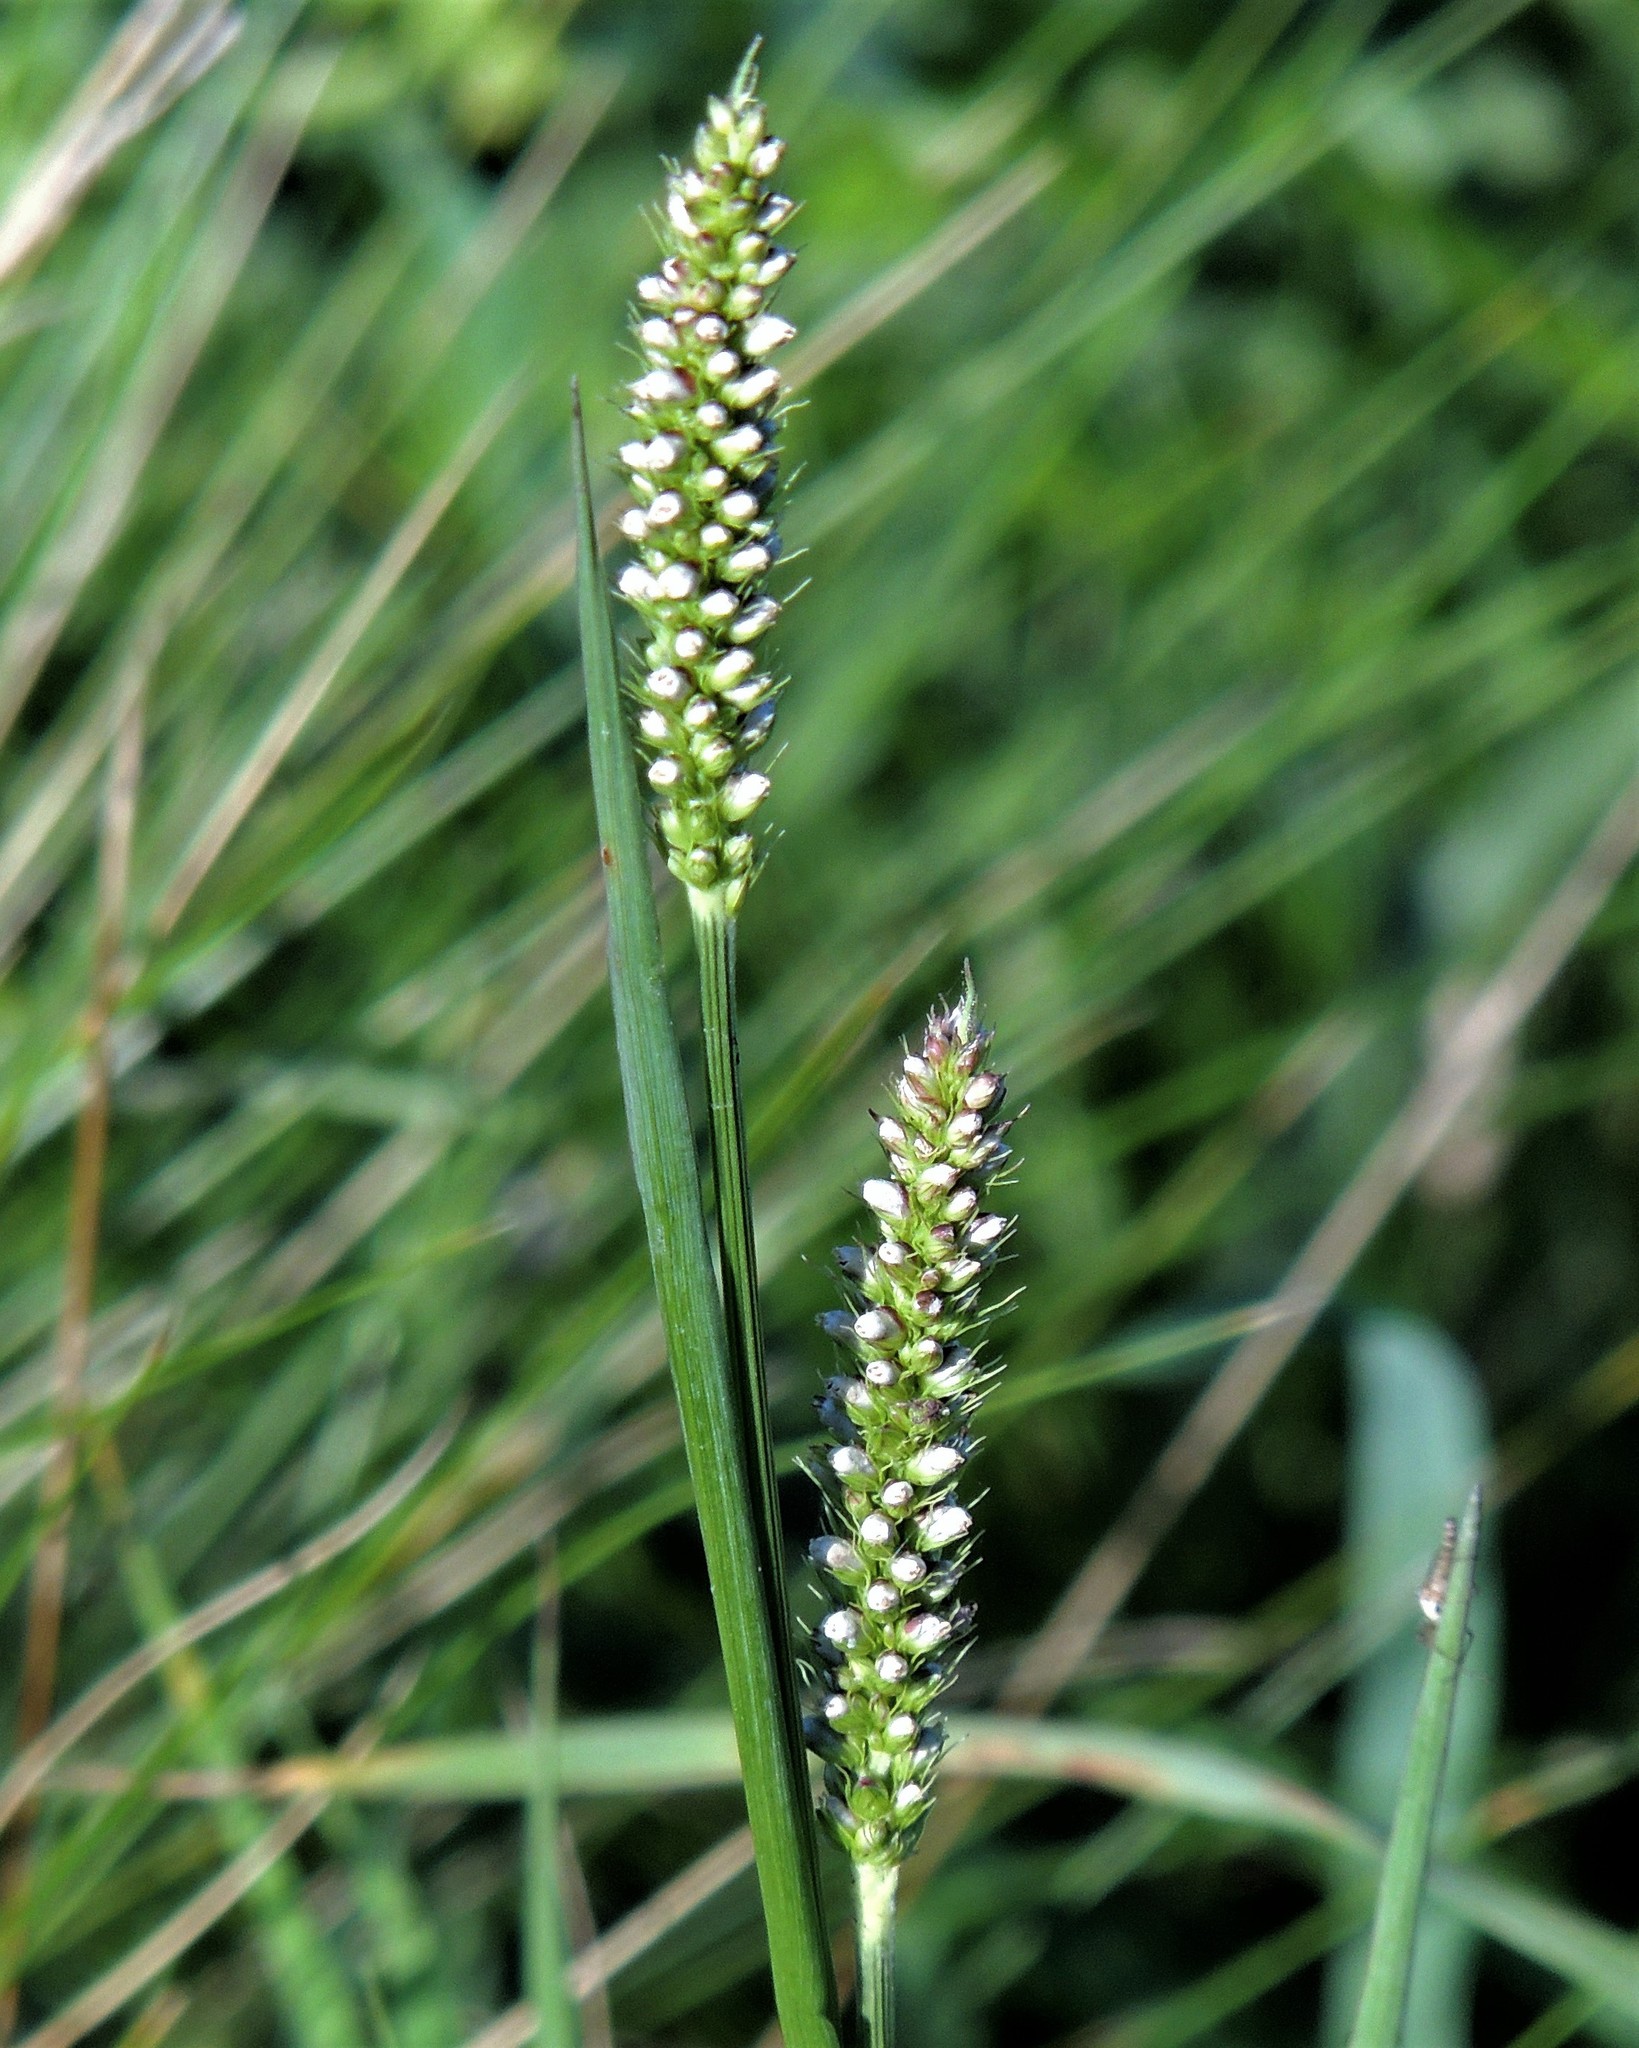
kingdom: Plantae
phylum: Tracheophyta
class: Liliopsida
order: Poales
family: Poaceae
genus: Setaria
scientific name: Setaria parviflora
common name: Knotroot bristle-grass
